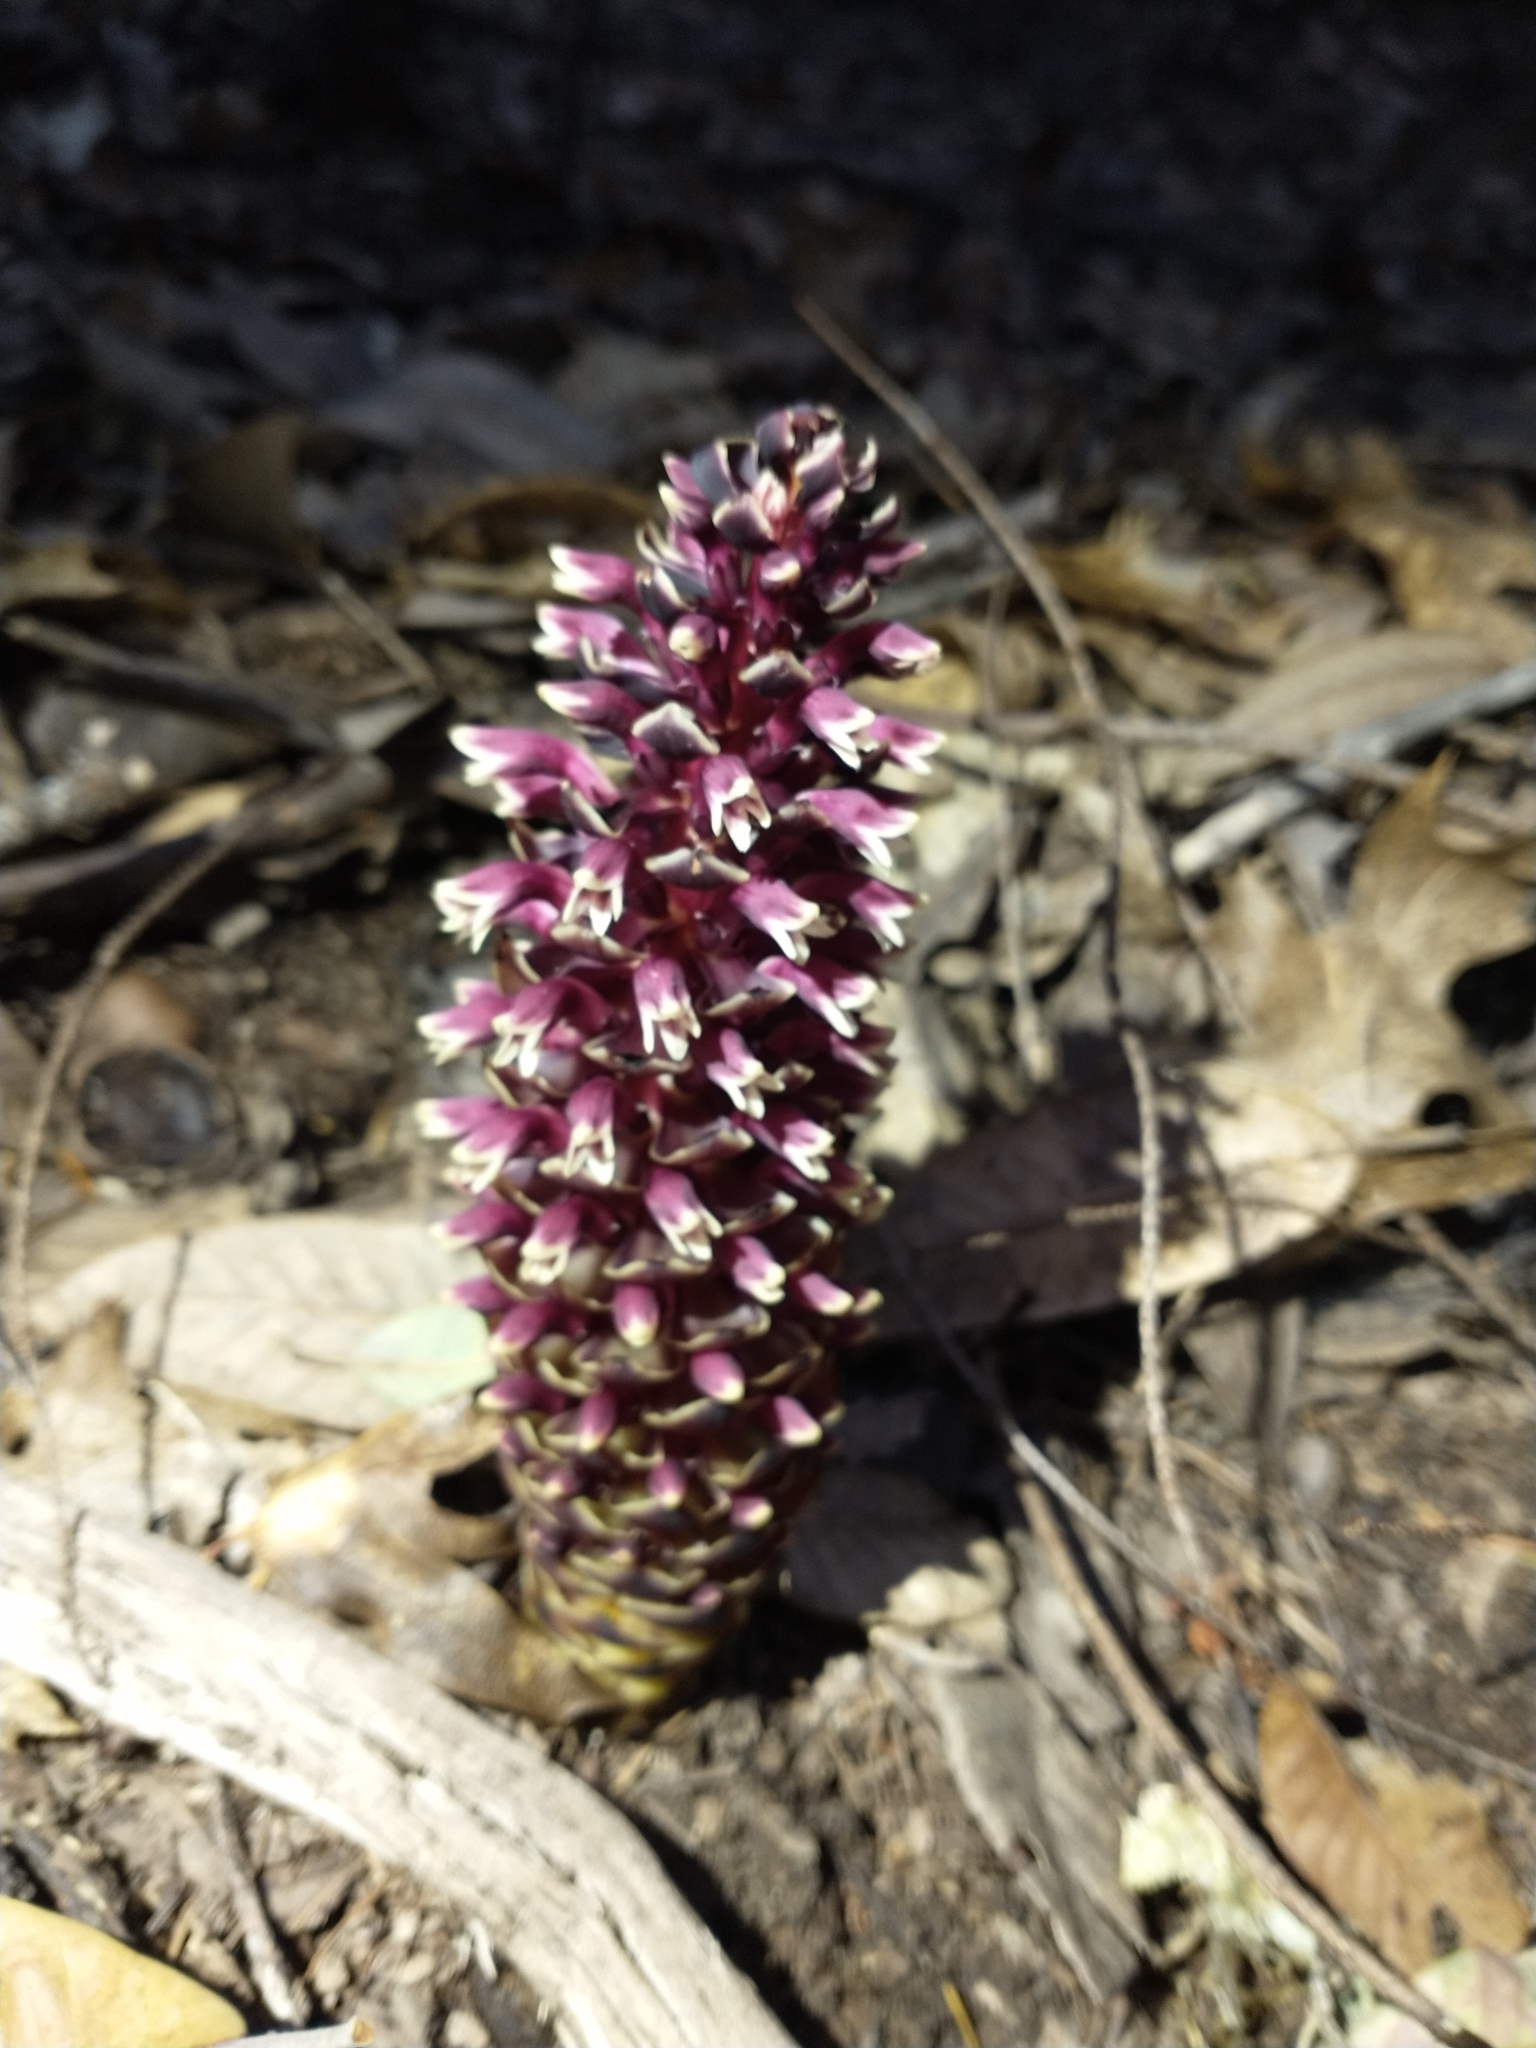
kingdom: Plantae
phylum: Tracheophyta
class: Magnoliopsida
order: Lamiales
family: Orobanchaceae
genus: Kopsiopsis
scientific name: Kopsiopsis strobilacea
